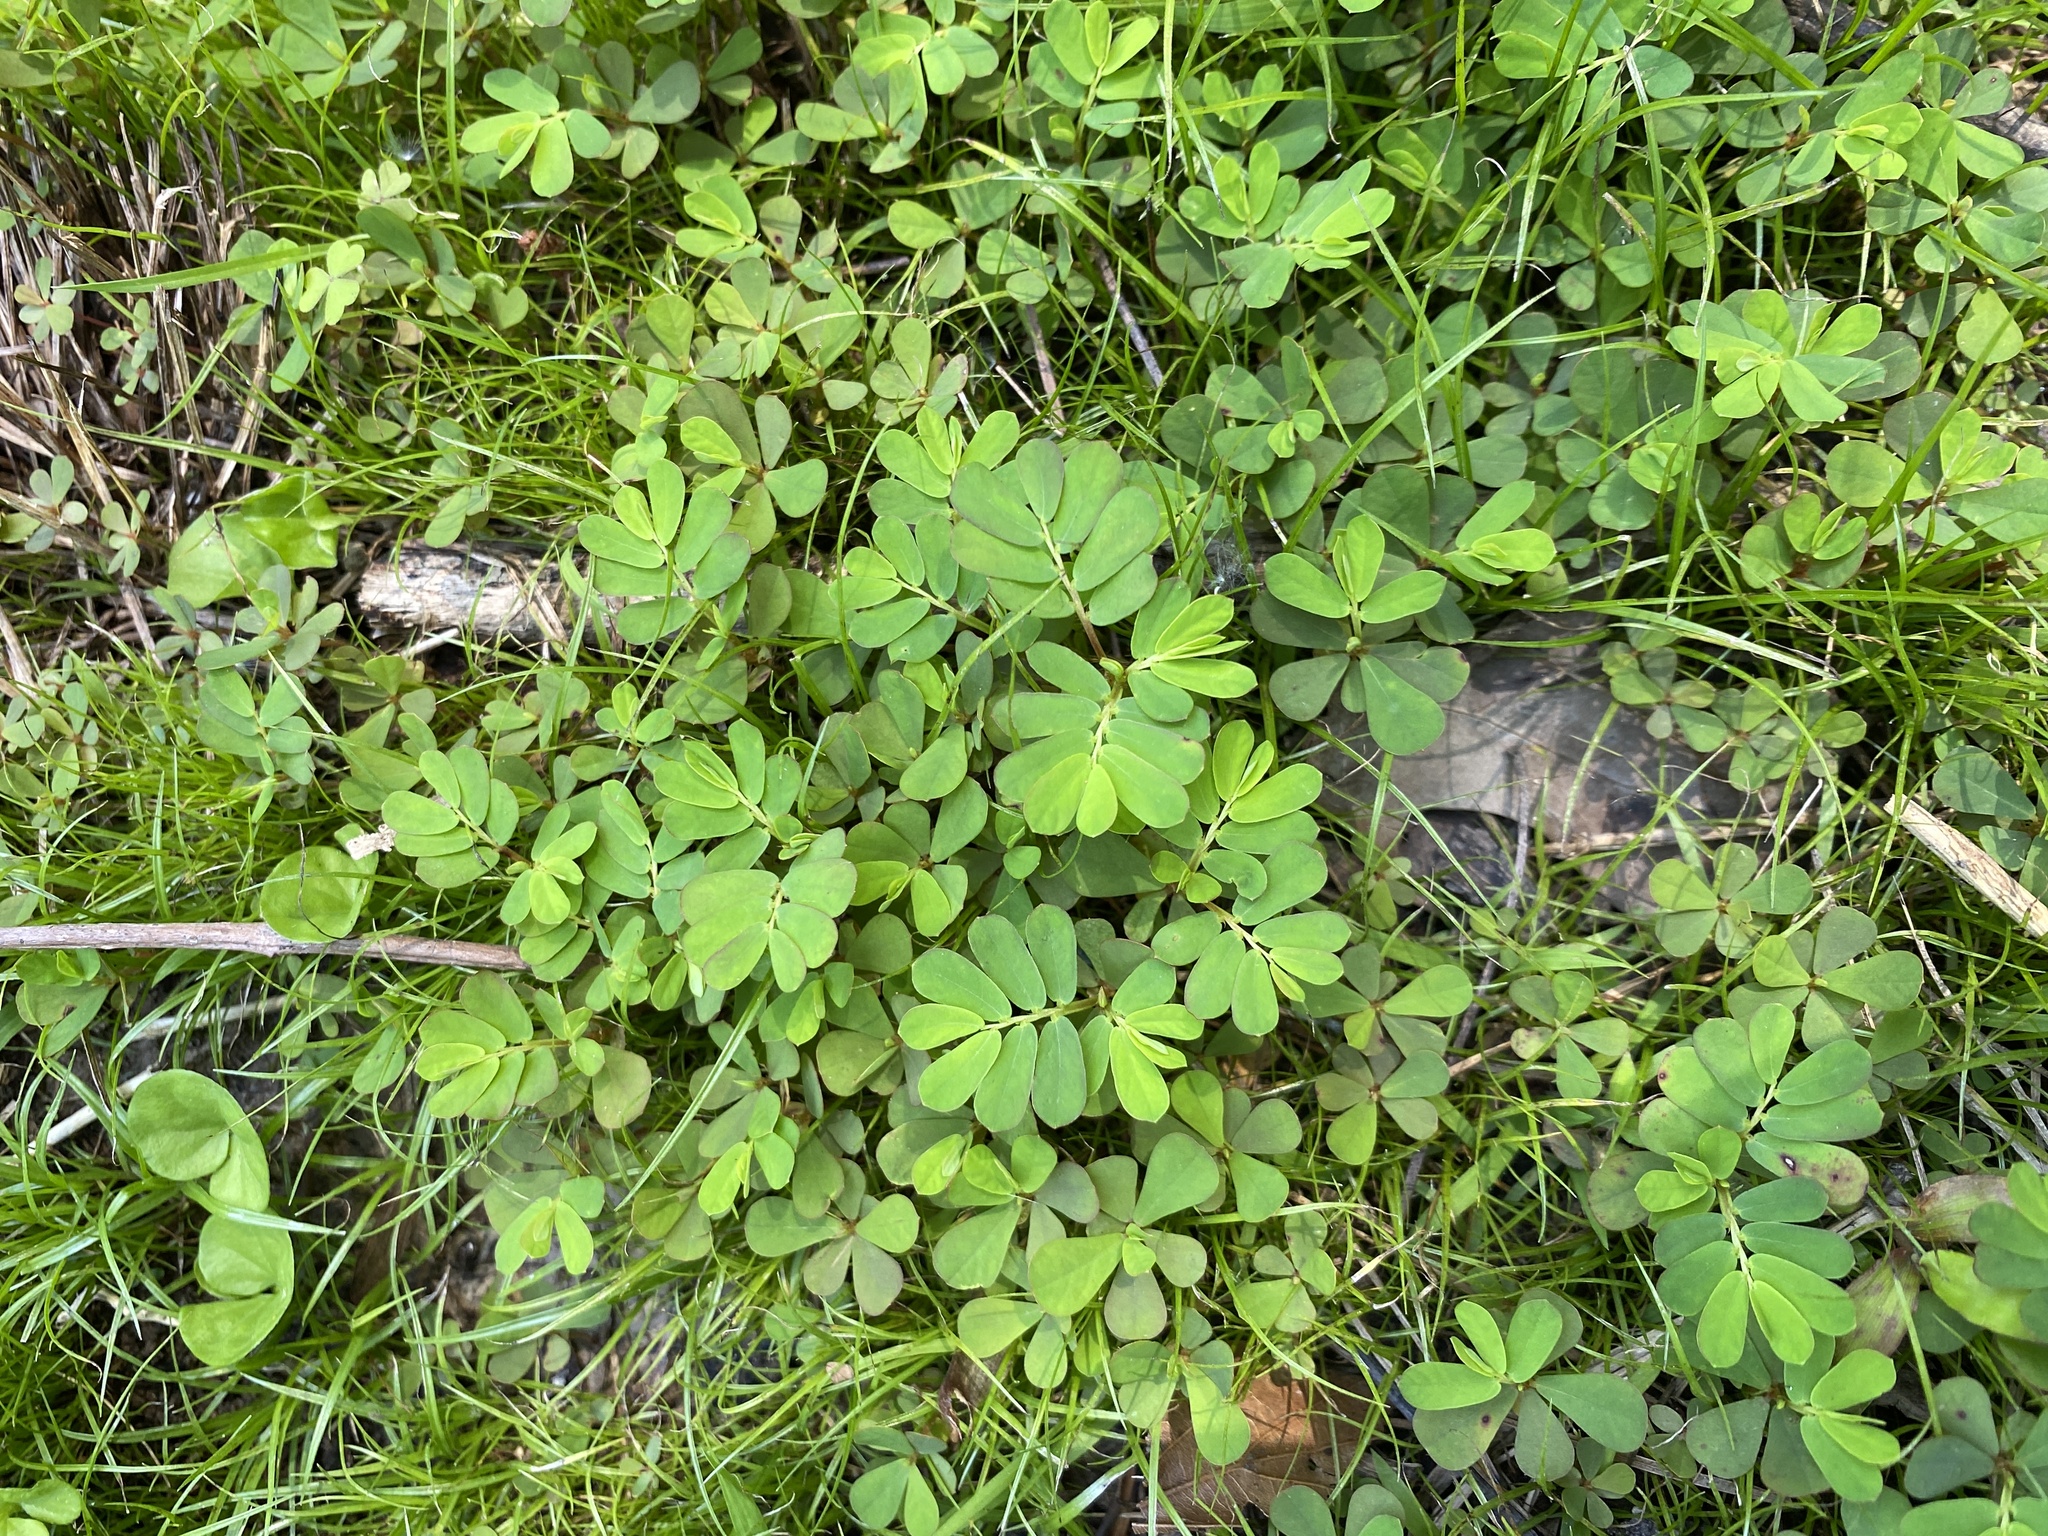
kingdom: Plantae
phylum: Tracheophyta
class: Magnoliopsida
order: Malpighiales
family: Phyllanthaceae
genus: Phyllanthus
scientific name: Phyllanthus urinaria
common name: Chamber bitter
